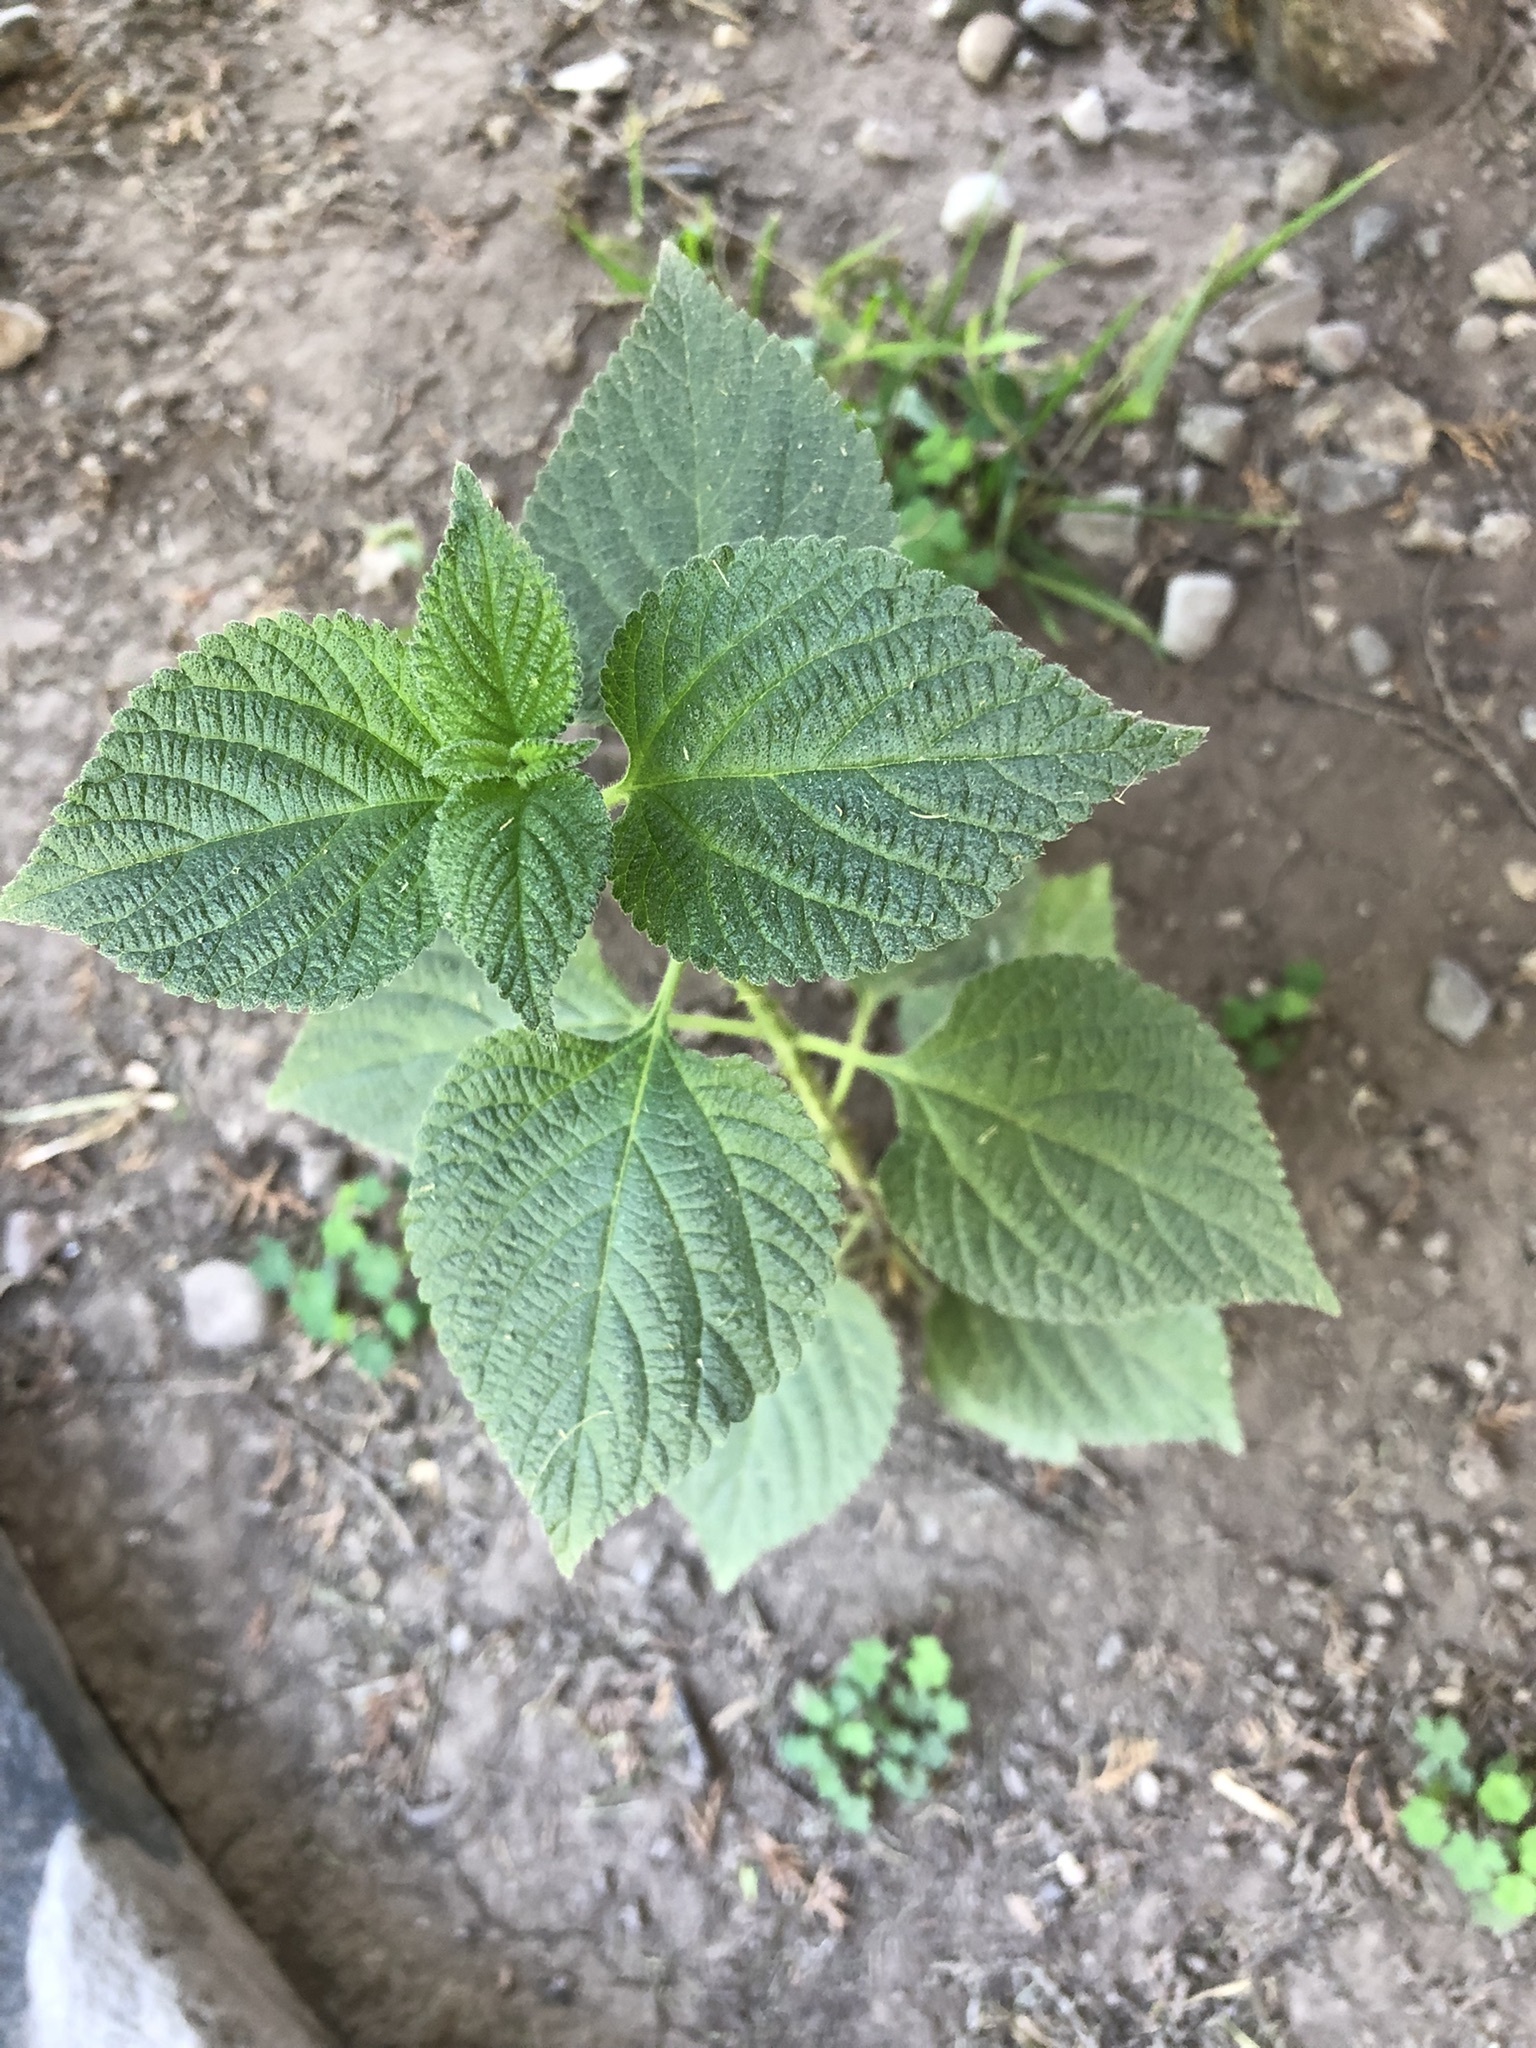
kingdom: Plantae
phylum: Tracheophyta
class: Magnoliopsida
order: Lamiales
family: Verbenaceae
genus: Lantana
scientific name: Lantana camara
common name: Lantana
